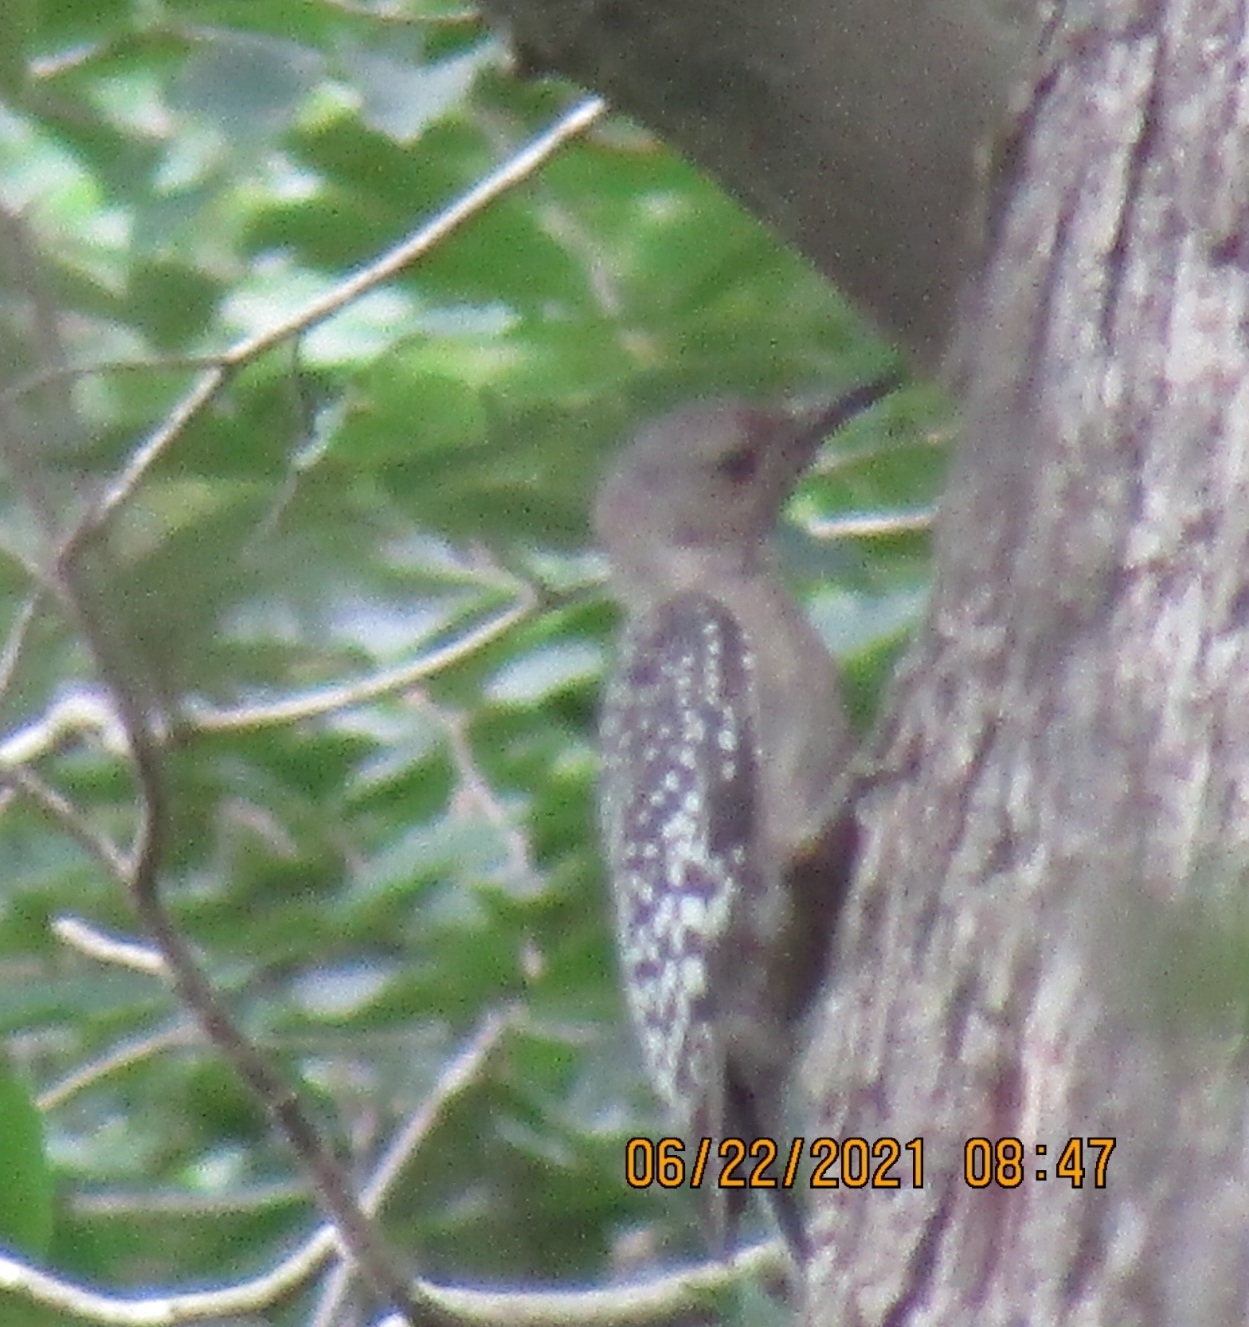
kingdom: Animalia
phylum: Chordata
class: Aves
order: Piciformes
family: Picidae
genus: Melanerpes
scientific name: Melanerpes carolinus
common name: Red-bellied woodpecker
